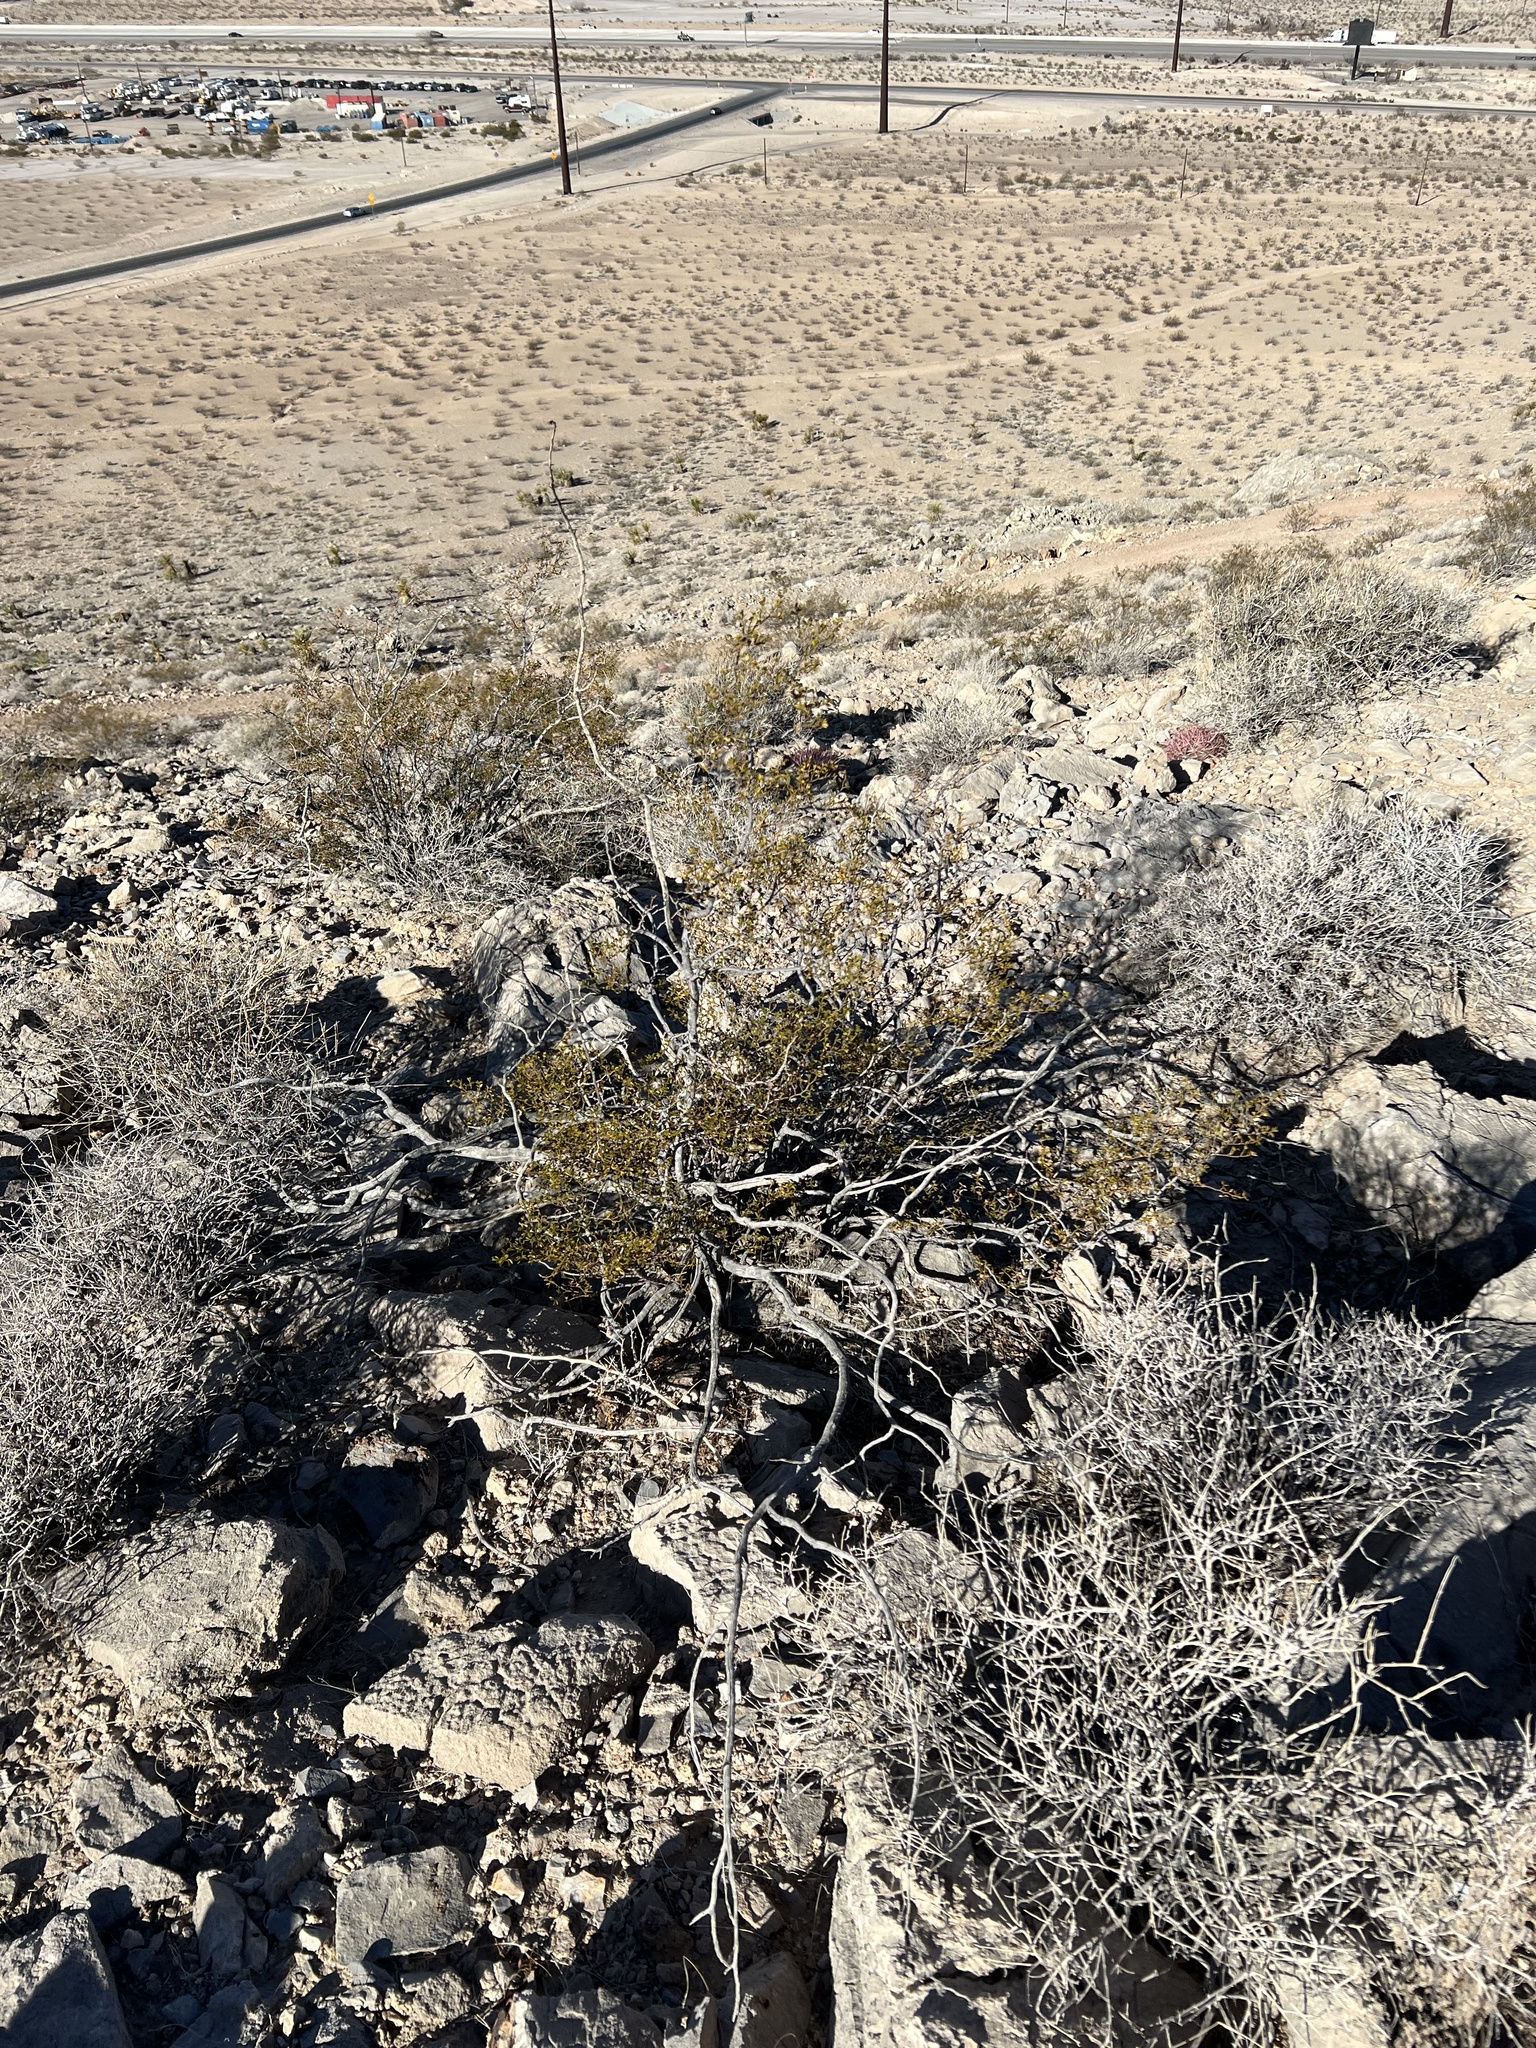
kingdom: Plantae
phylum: Tracheophyta
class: Magnoliopsida
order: Zygophyllales
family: Zygophyllaceae
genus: Larrea
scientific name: Larrea tridentata
